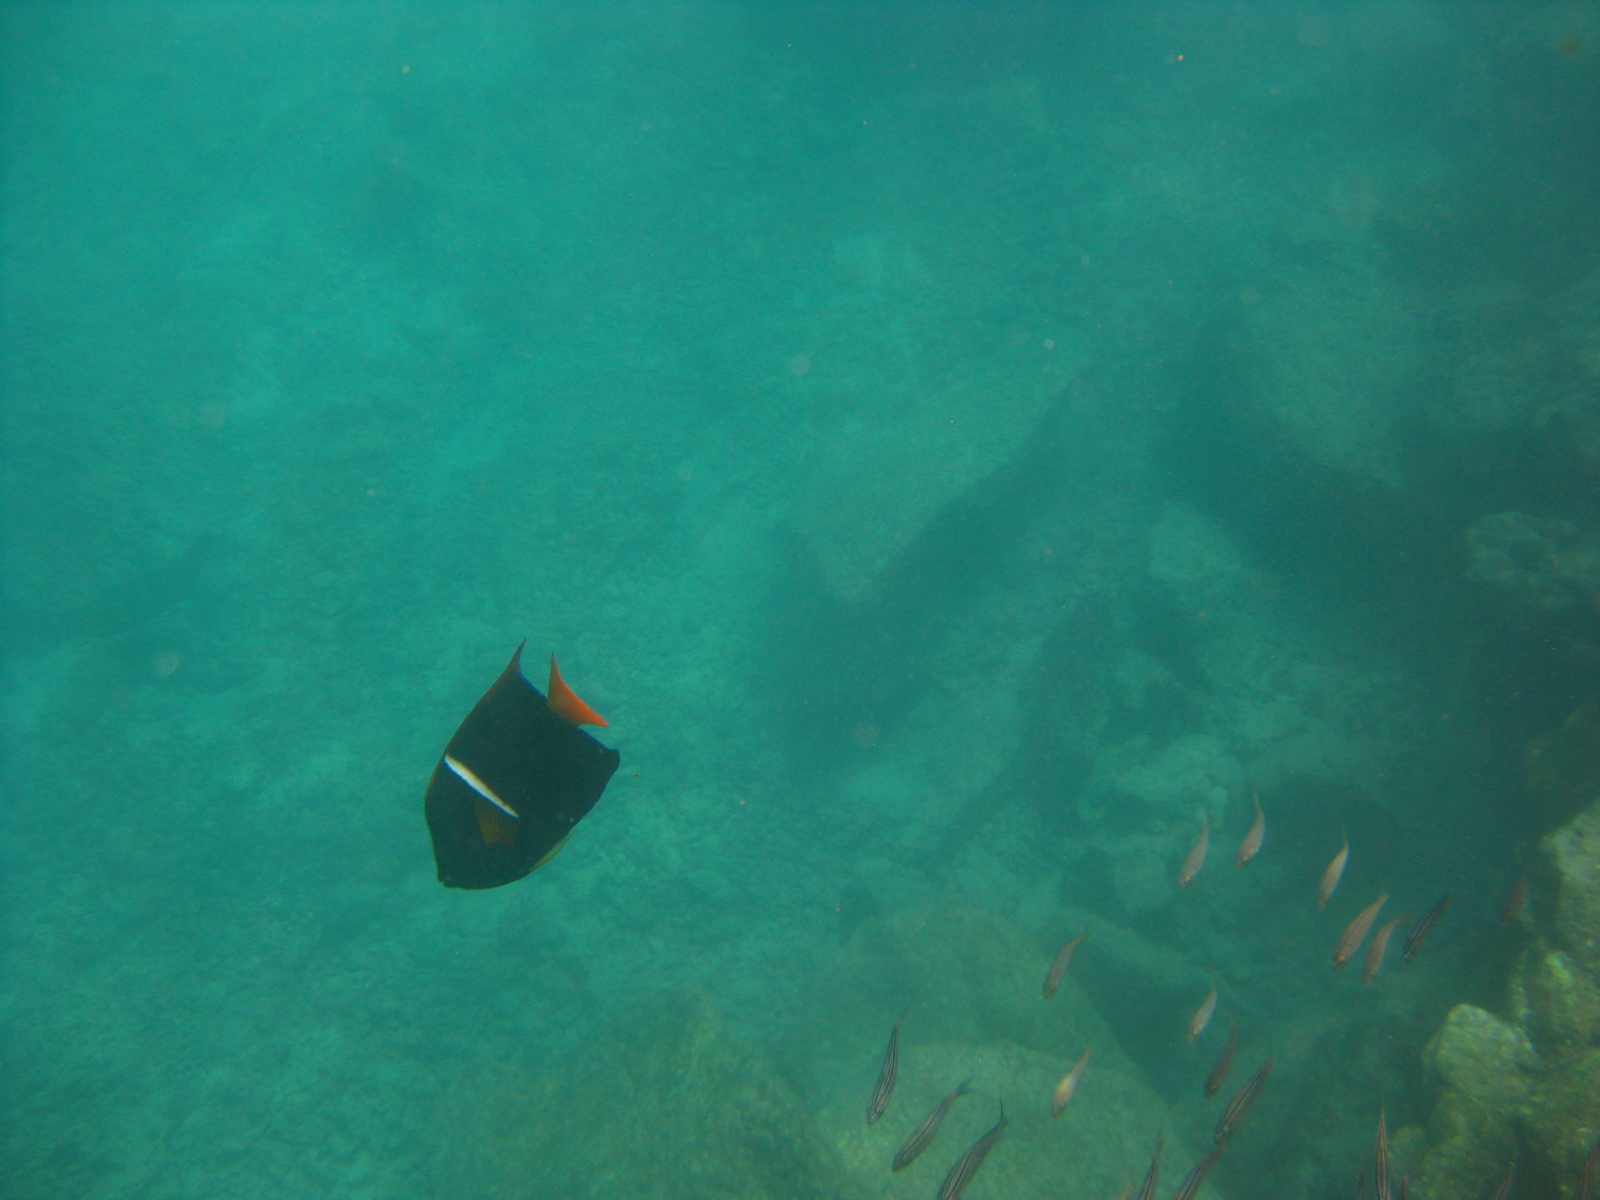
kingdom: Animalia
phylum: Chordata
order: Perciformes
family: Pomacanthidae
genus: Holacanthus
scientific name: Holacanthus passer
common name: King angelfish
